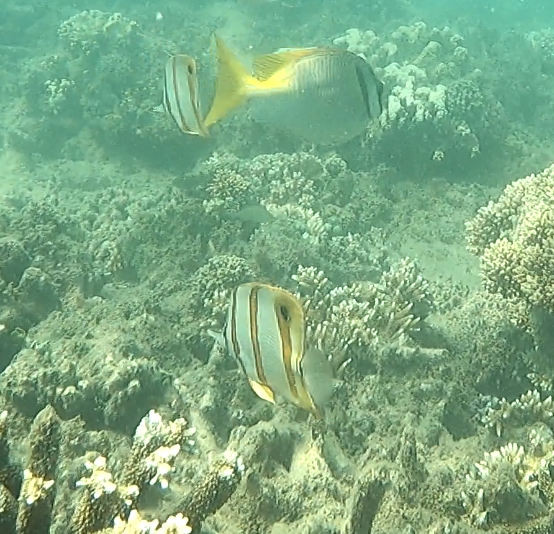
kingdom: Animalia
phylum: Chordata
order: Perciformes
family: Chaetodontidae
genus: Chelmon
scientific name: Chelmon rostratus
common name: Beaked butterflyfish
